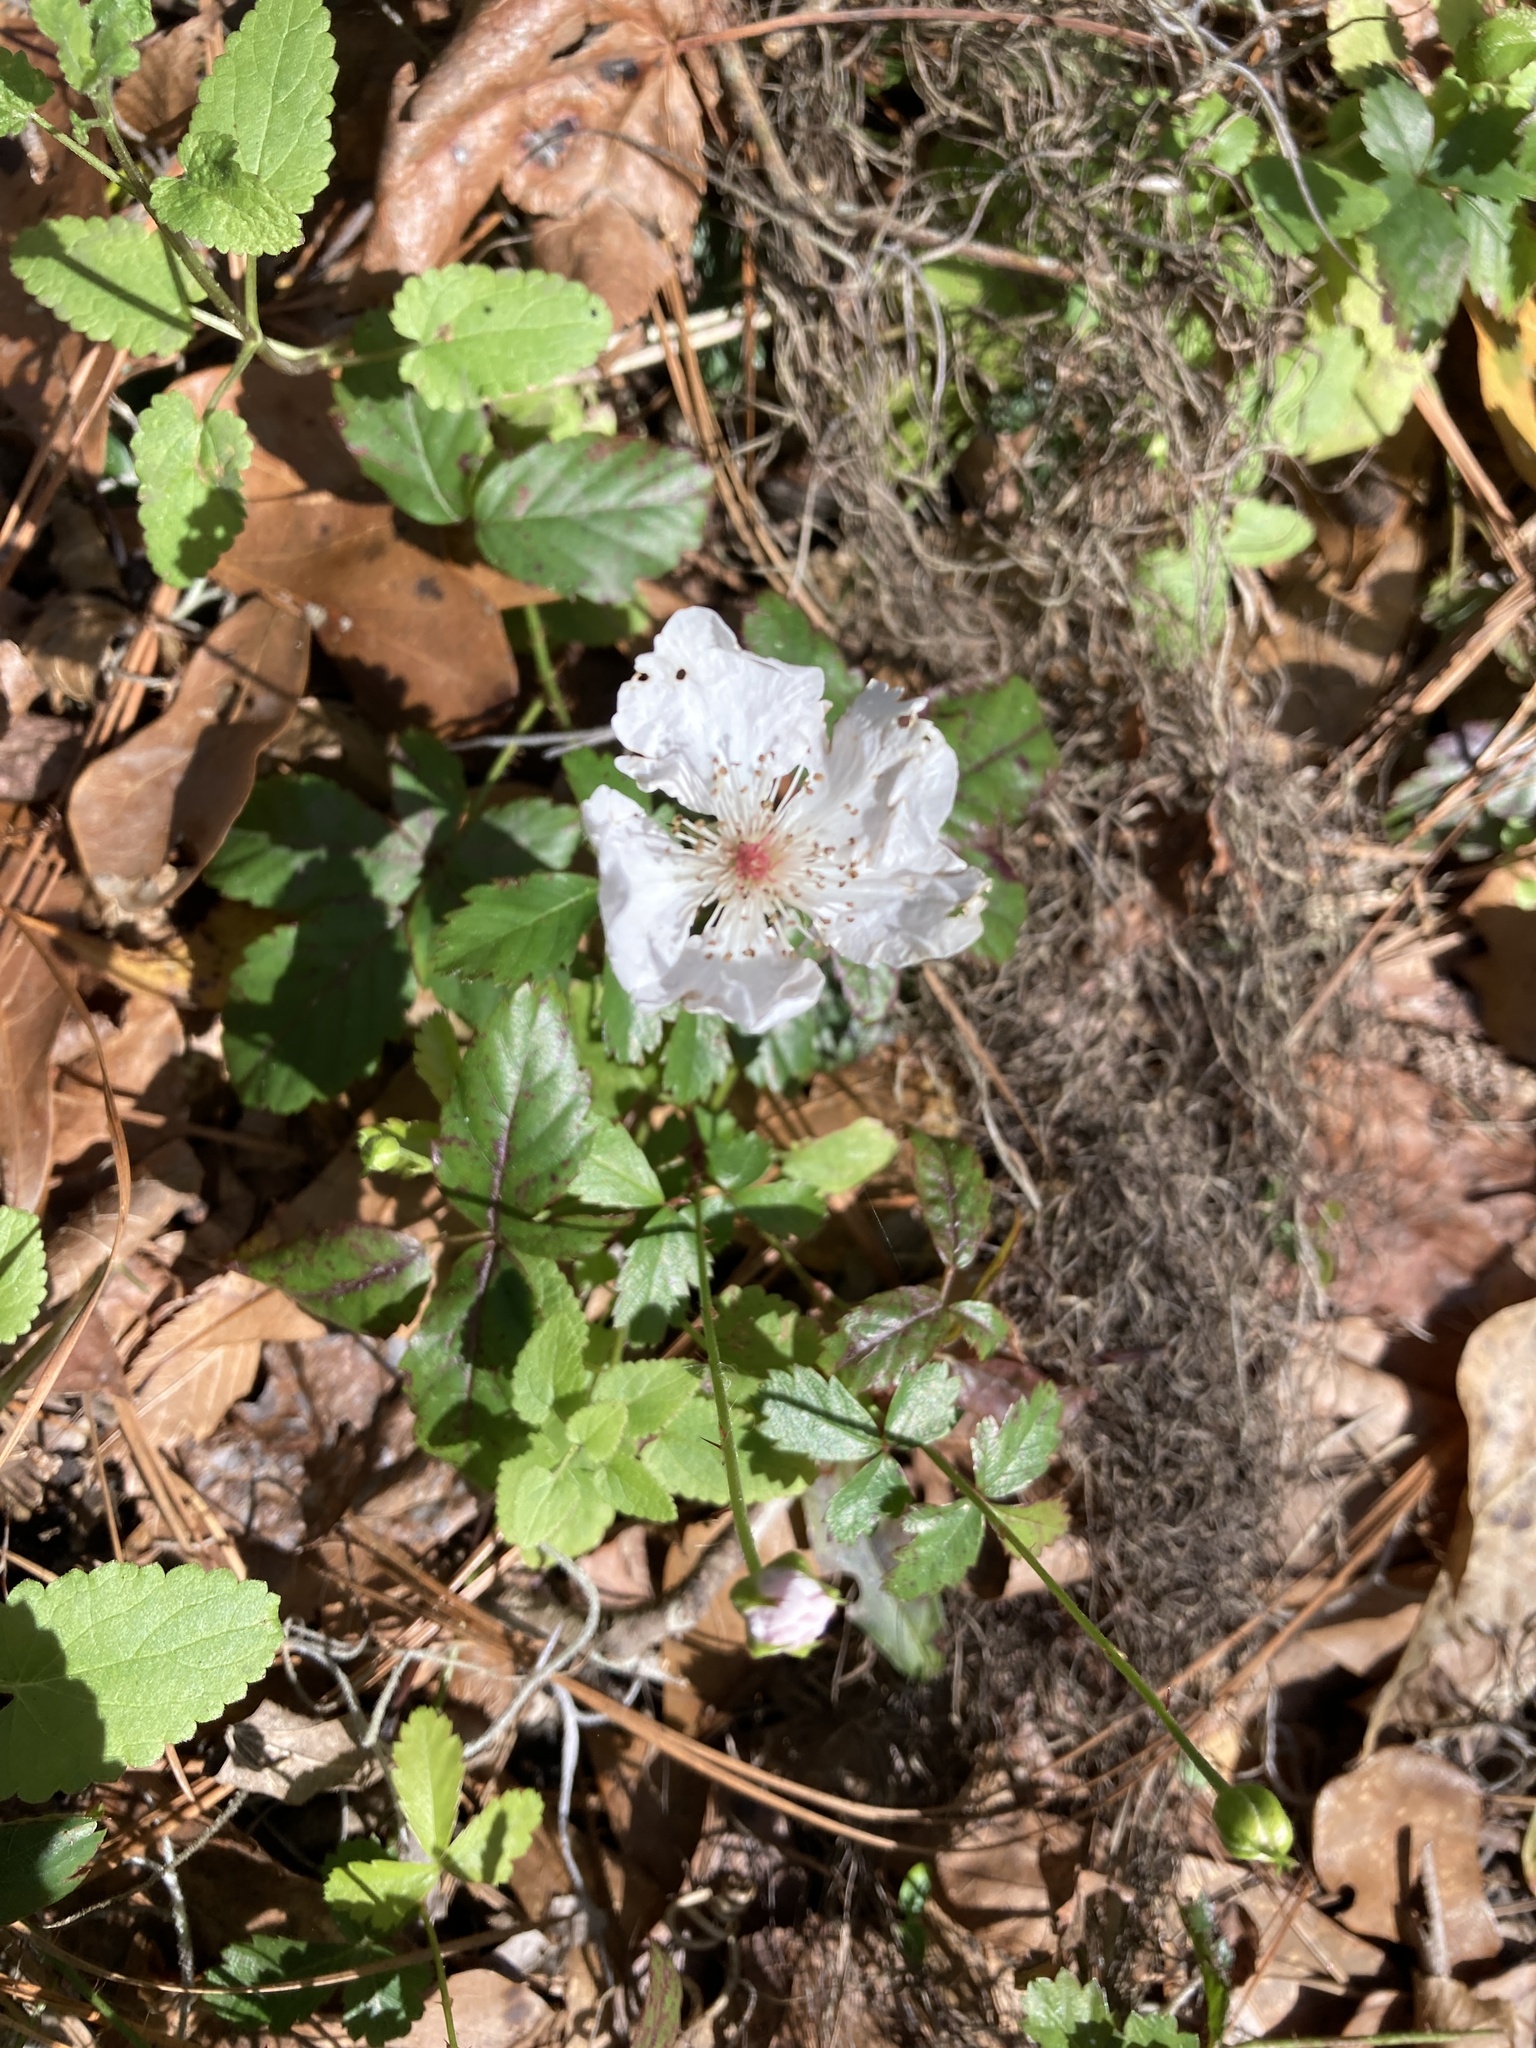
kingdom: Plantae
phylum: Tracheophyta
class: Magnoliopsida
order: Rosales
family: Rosaceae
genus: Rubus
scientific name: Rubus trivialis
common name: Southern dewberry
